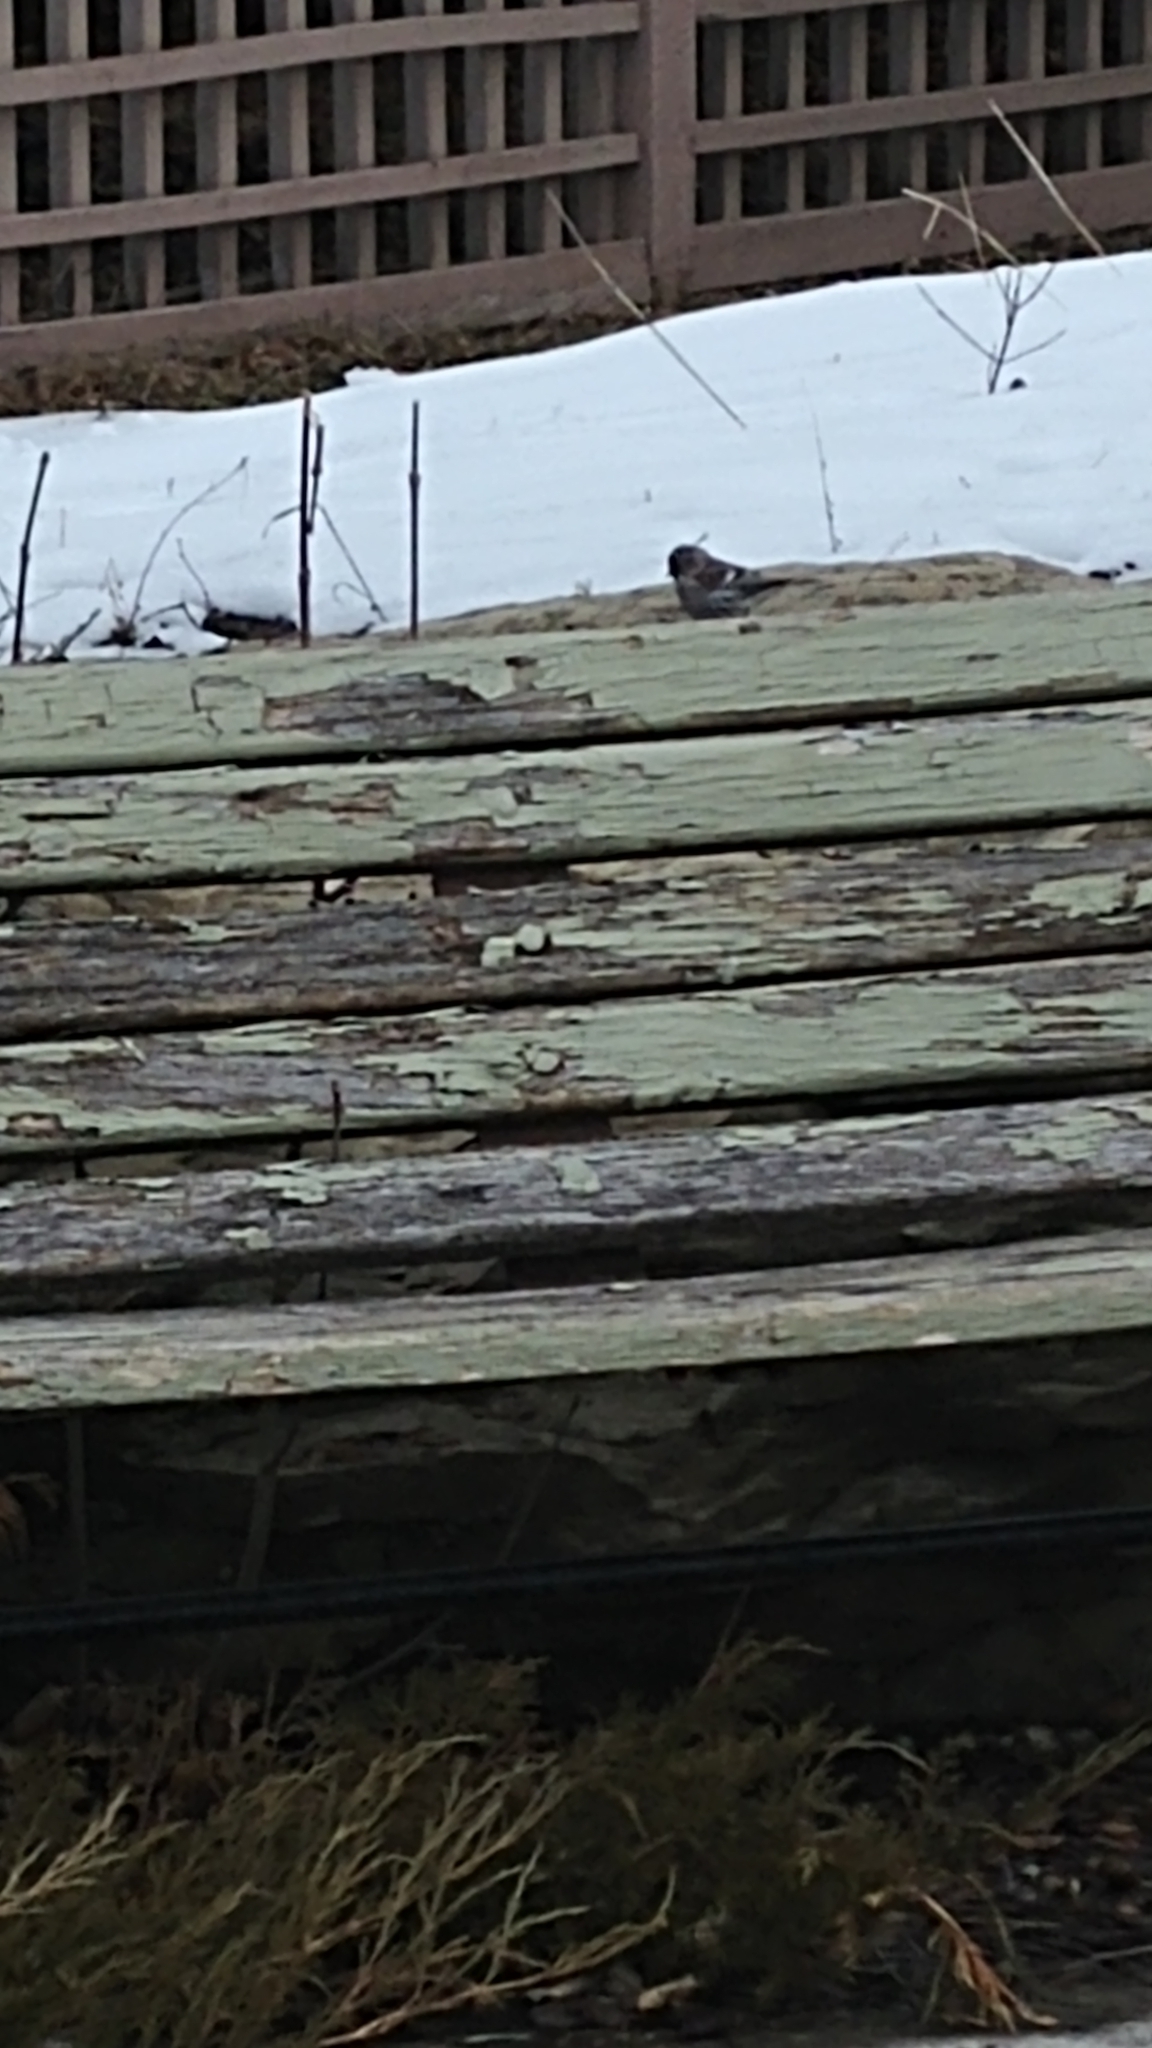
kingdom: Animalia
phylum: Chordata
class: Aves
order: Passeriformes
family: Fringillidae
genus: Acanthis
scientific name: Acanthis flammea
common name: Common redpoll
